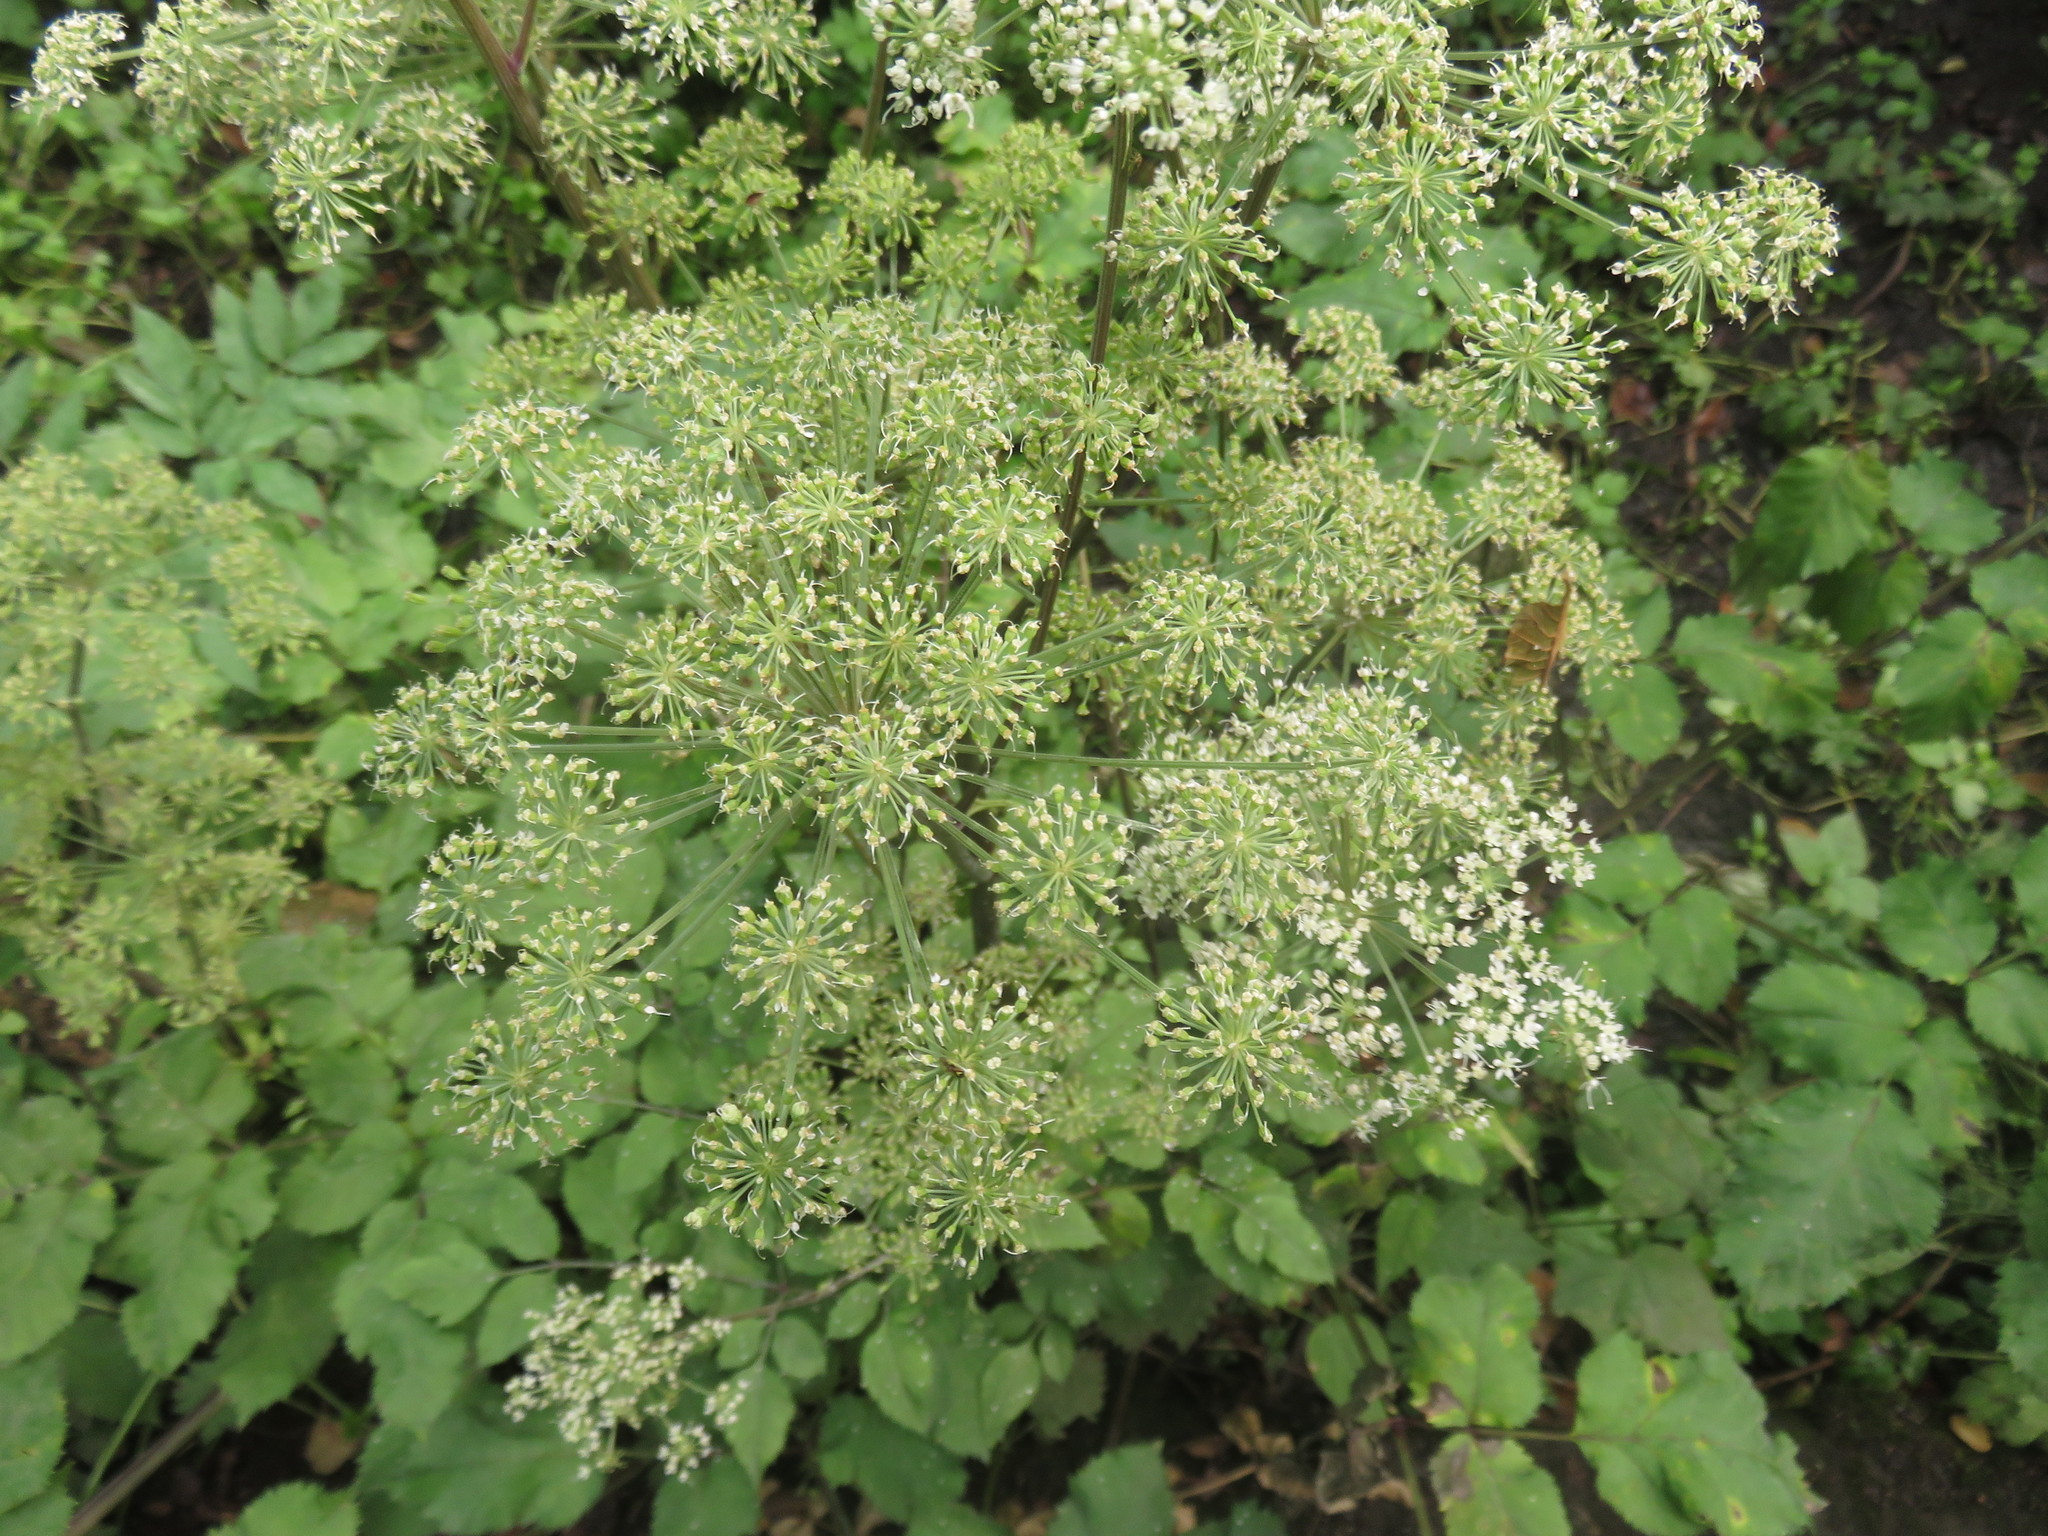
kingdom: Plantae
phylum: Tracheophyta
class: Magnoliopsida
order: Apiales
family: Apiaceae
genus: Angelica
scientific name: Angelica sylvestris
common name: Wild angelica
